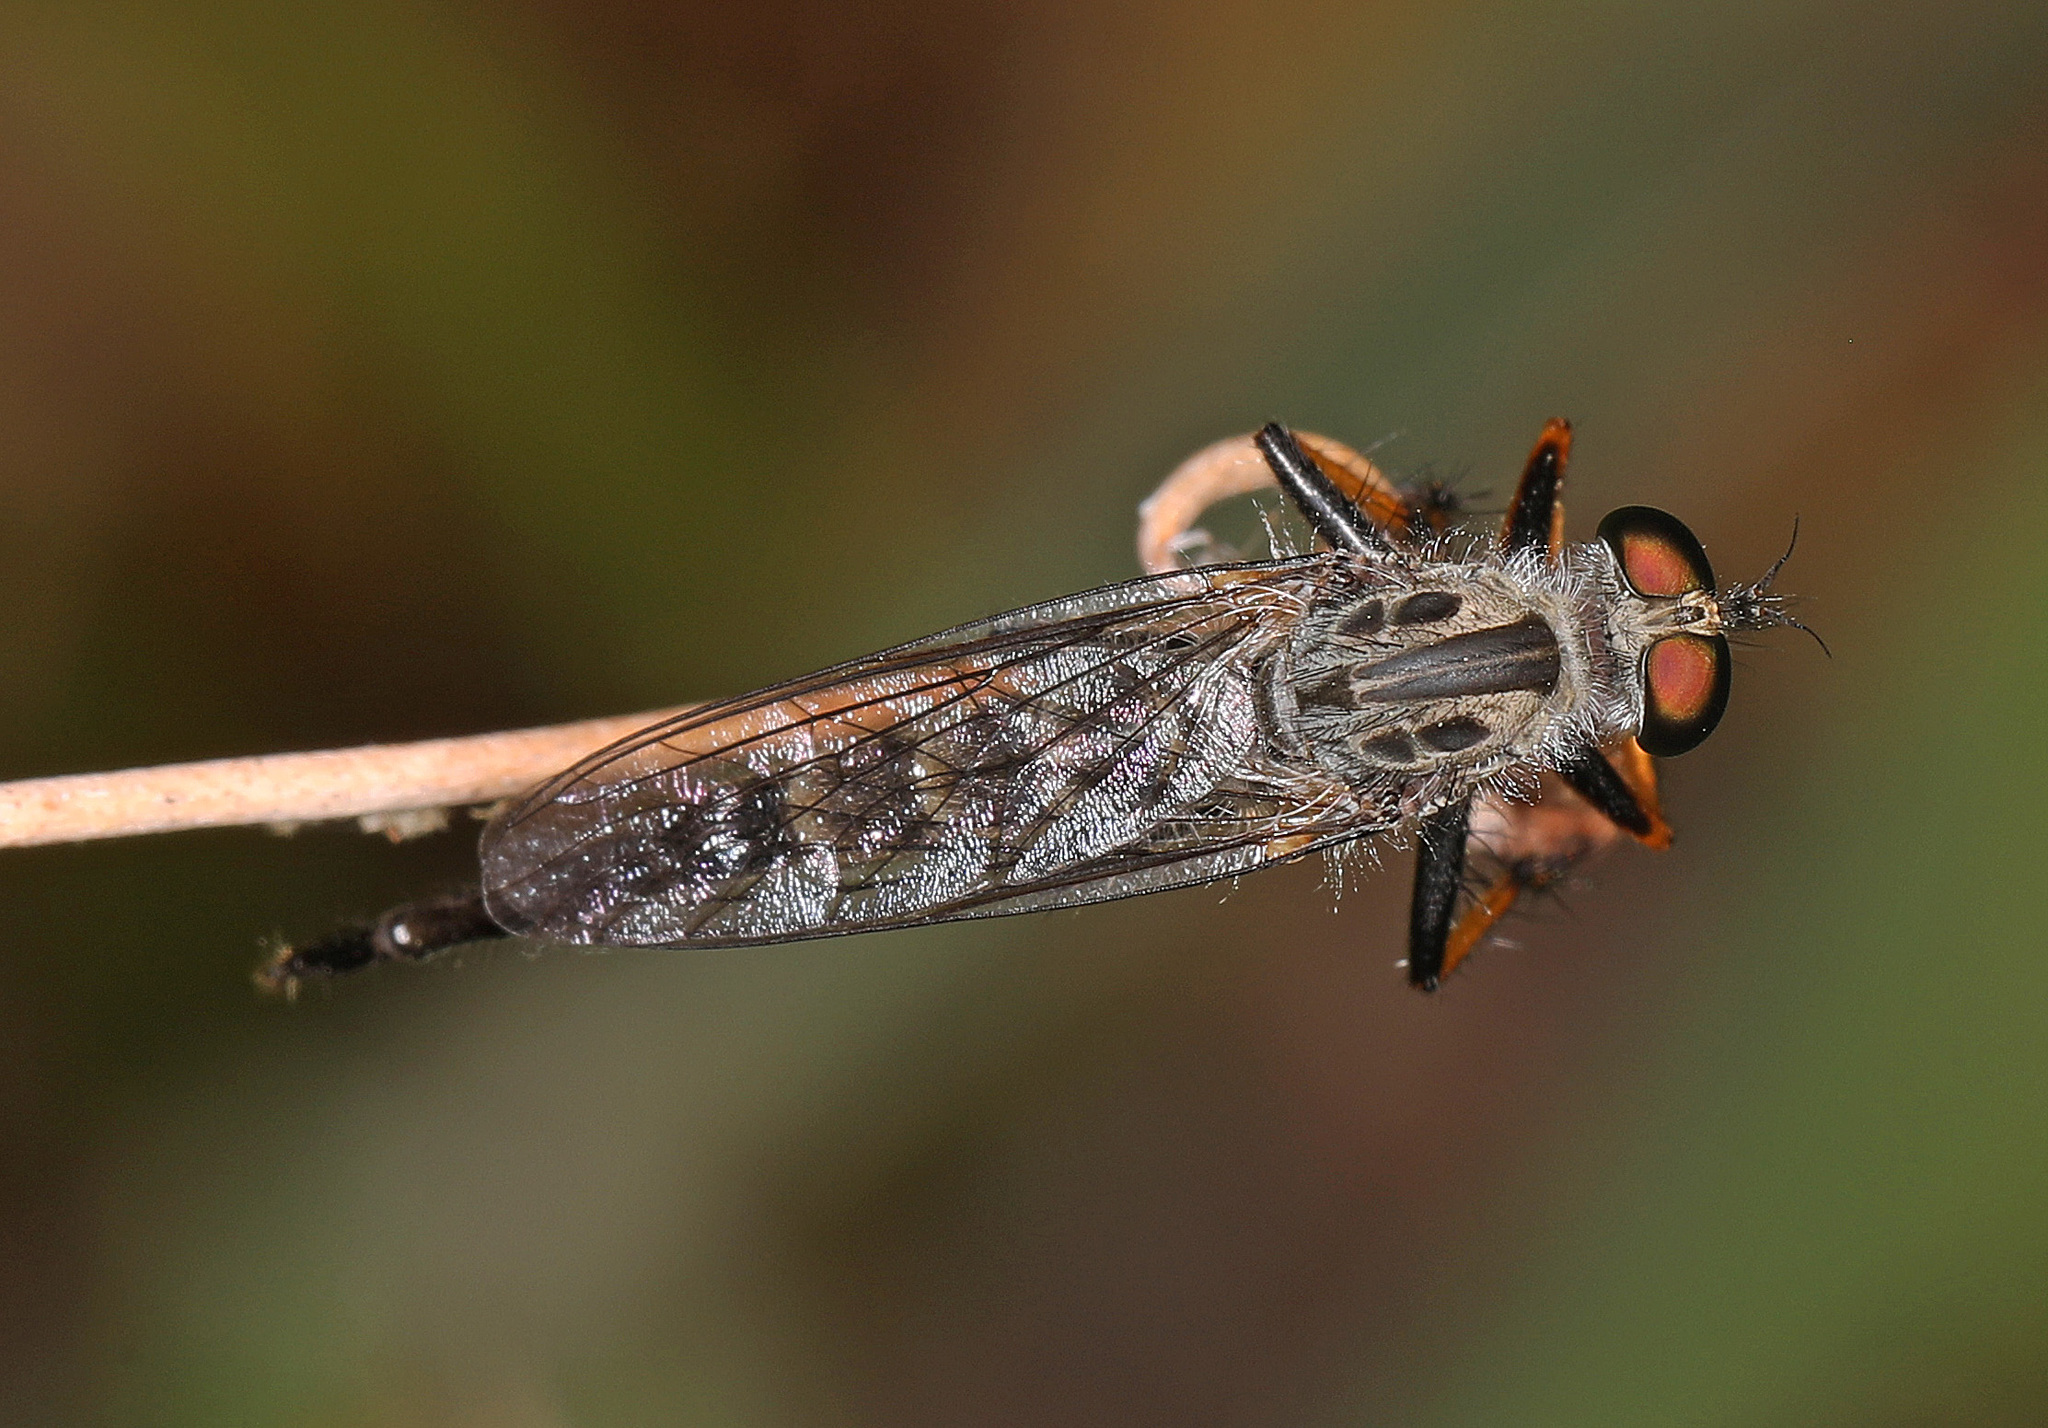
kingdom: Animalia
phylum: Arthropoda
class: Insecta
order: Diptera
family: Asilidae
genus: Asilus
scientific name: Asilus flavofemoratus
